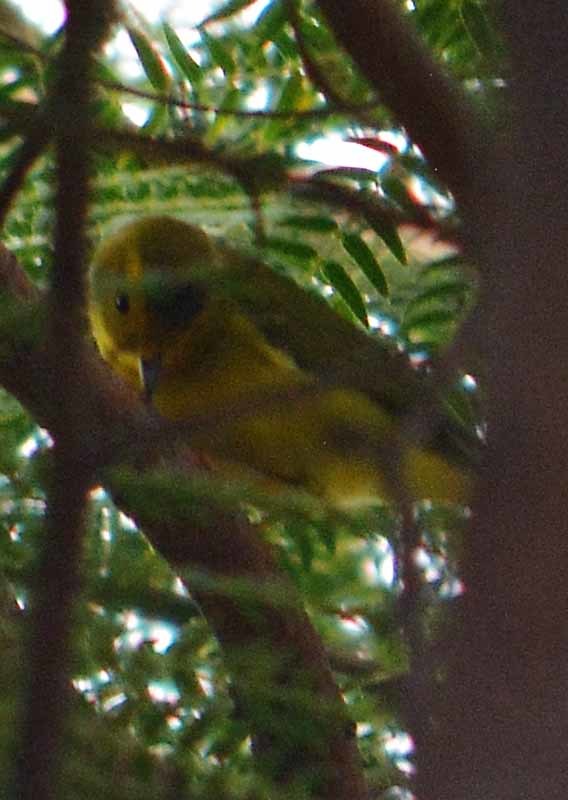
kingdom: Animalia
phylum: Chordata
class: Aves
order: Passeriformes
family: Parulidae
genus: Cardellina
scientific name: Cardellina pusilla
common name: Wilson's warbler
